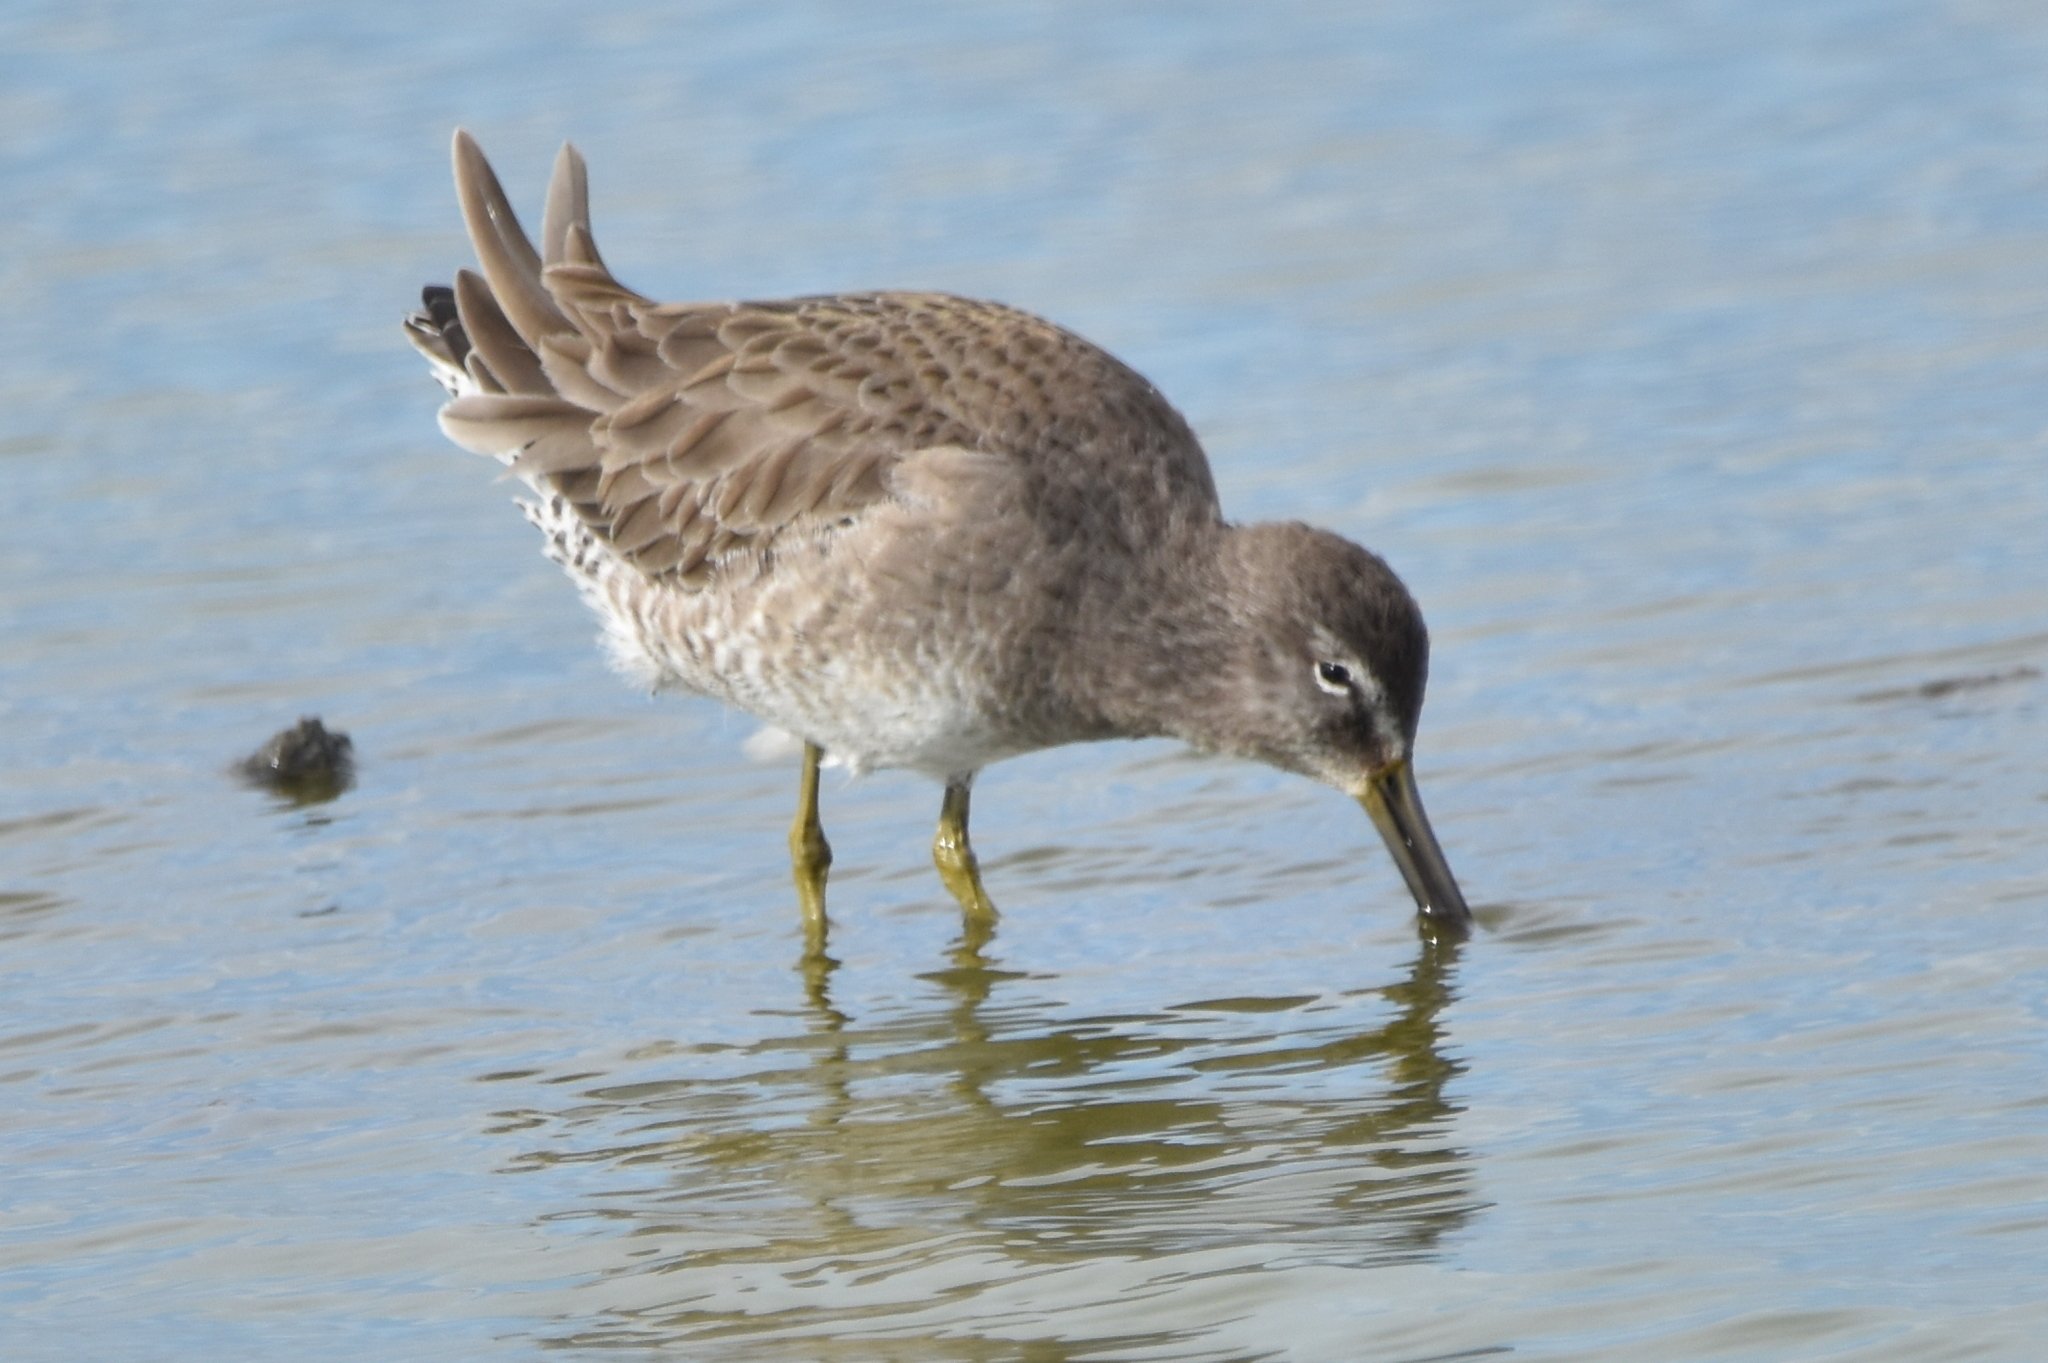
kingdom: Animalia
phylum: Chordata
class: Aves
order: Charadriiformes
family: Scolopacidae
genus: Limnodromus
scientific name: Limnodromus
